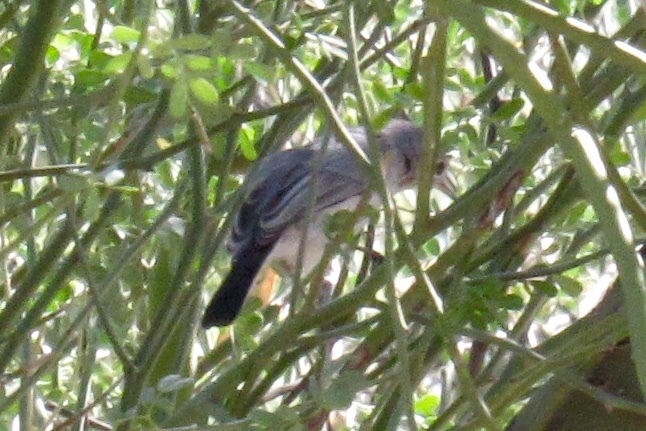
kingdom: Animalia
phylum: Chordata
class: Aves
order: Passeriformes
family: Polioptilidae
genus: Polioptila
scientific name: Polioptila caerulea
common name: Blue-gray gnatcatcher
